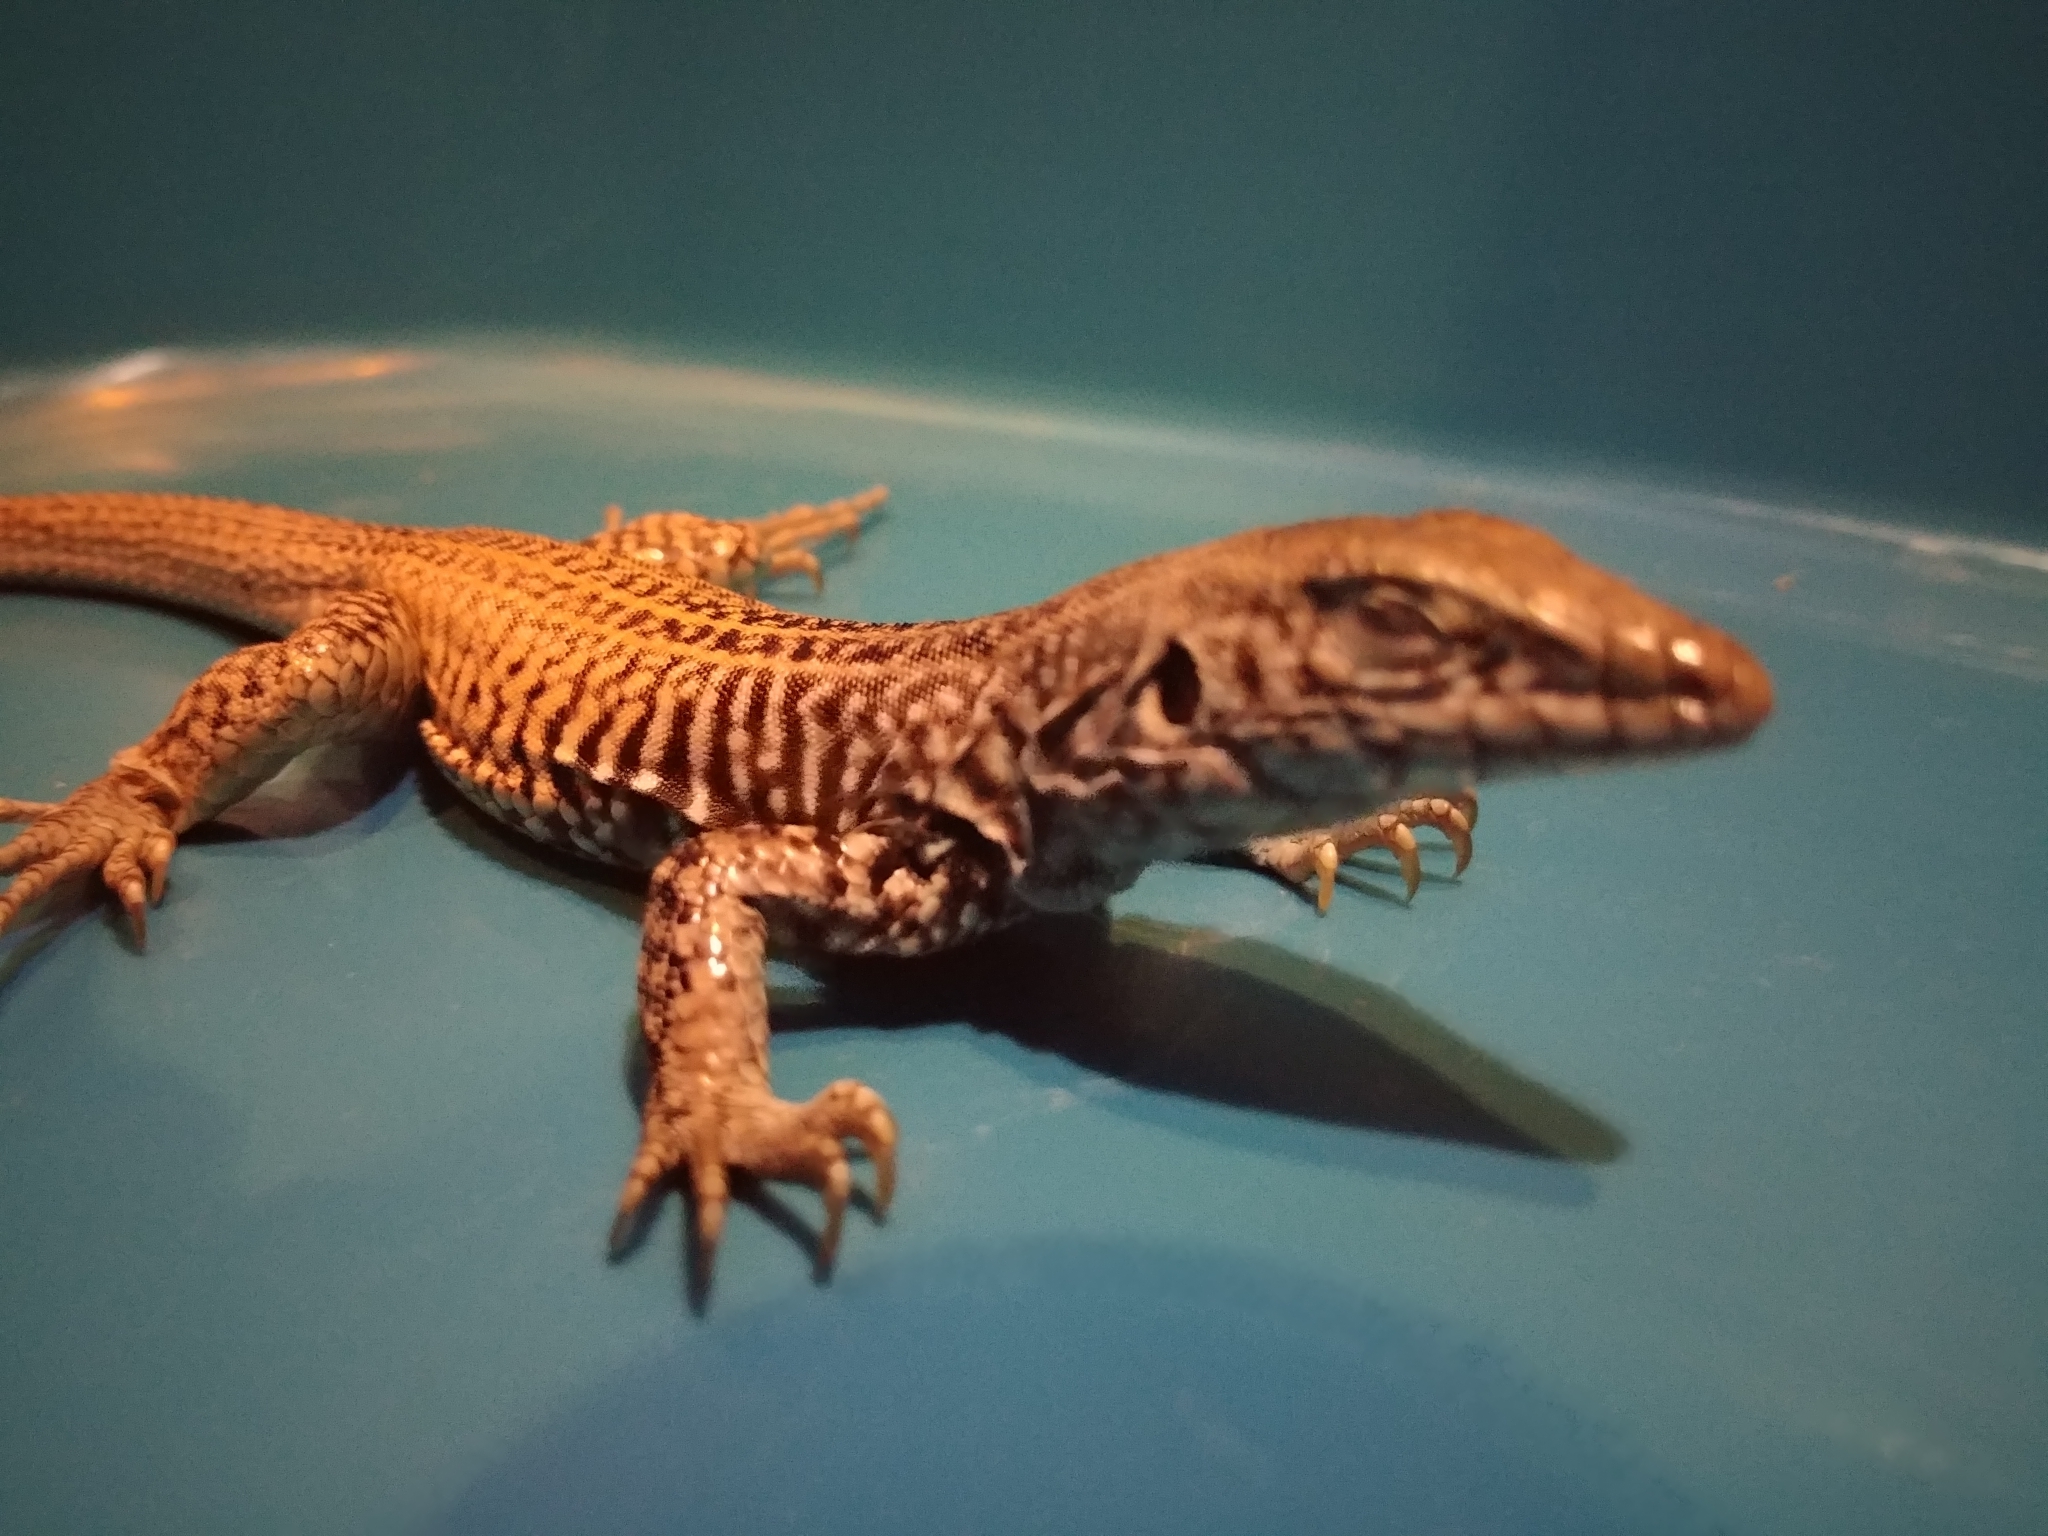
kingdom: Animalia
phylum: Chordata
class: Squamata
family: Teiidae
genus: Aspidoscelis
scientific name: Aspidoscelis tigris
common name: Tiger whiptail
